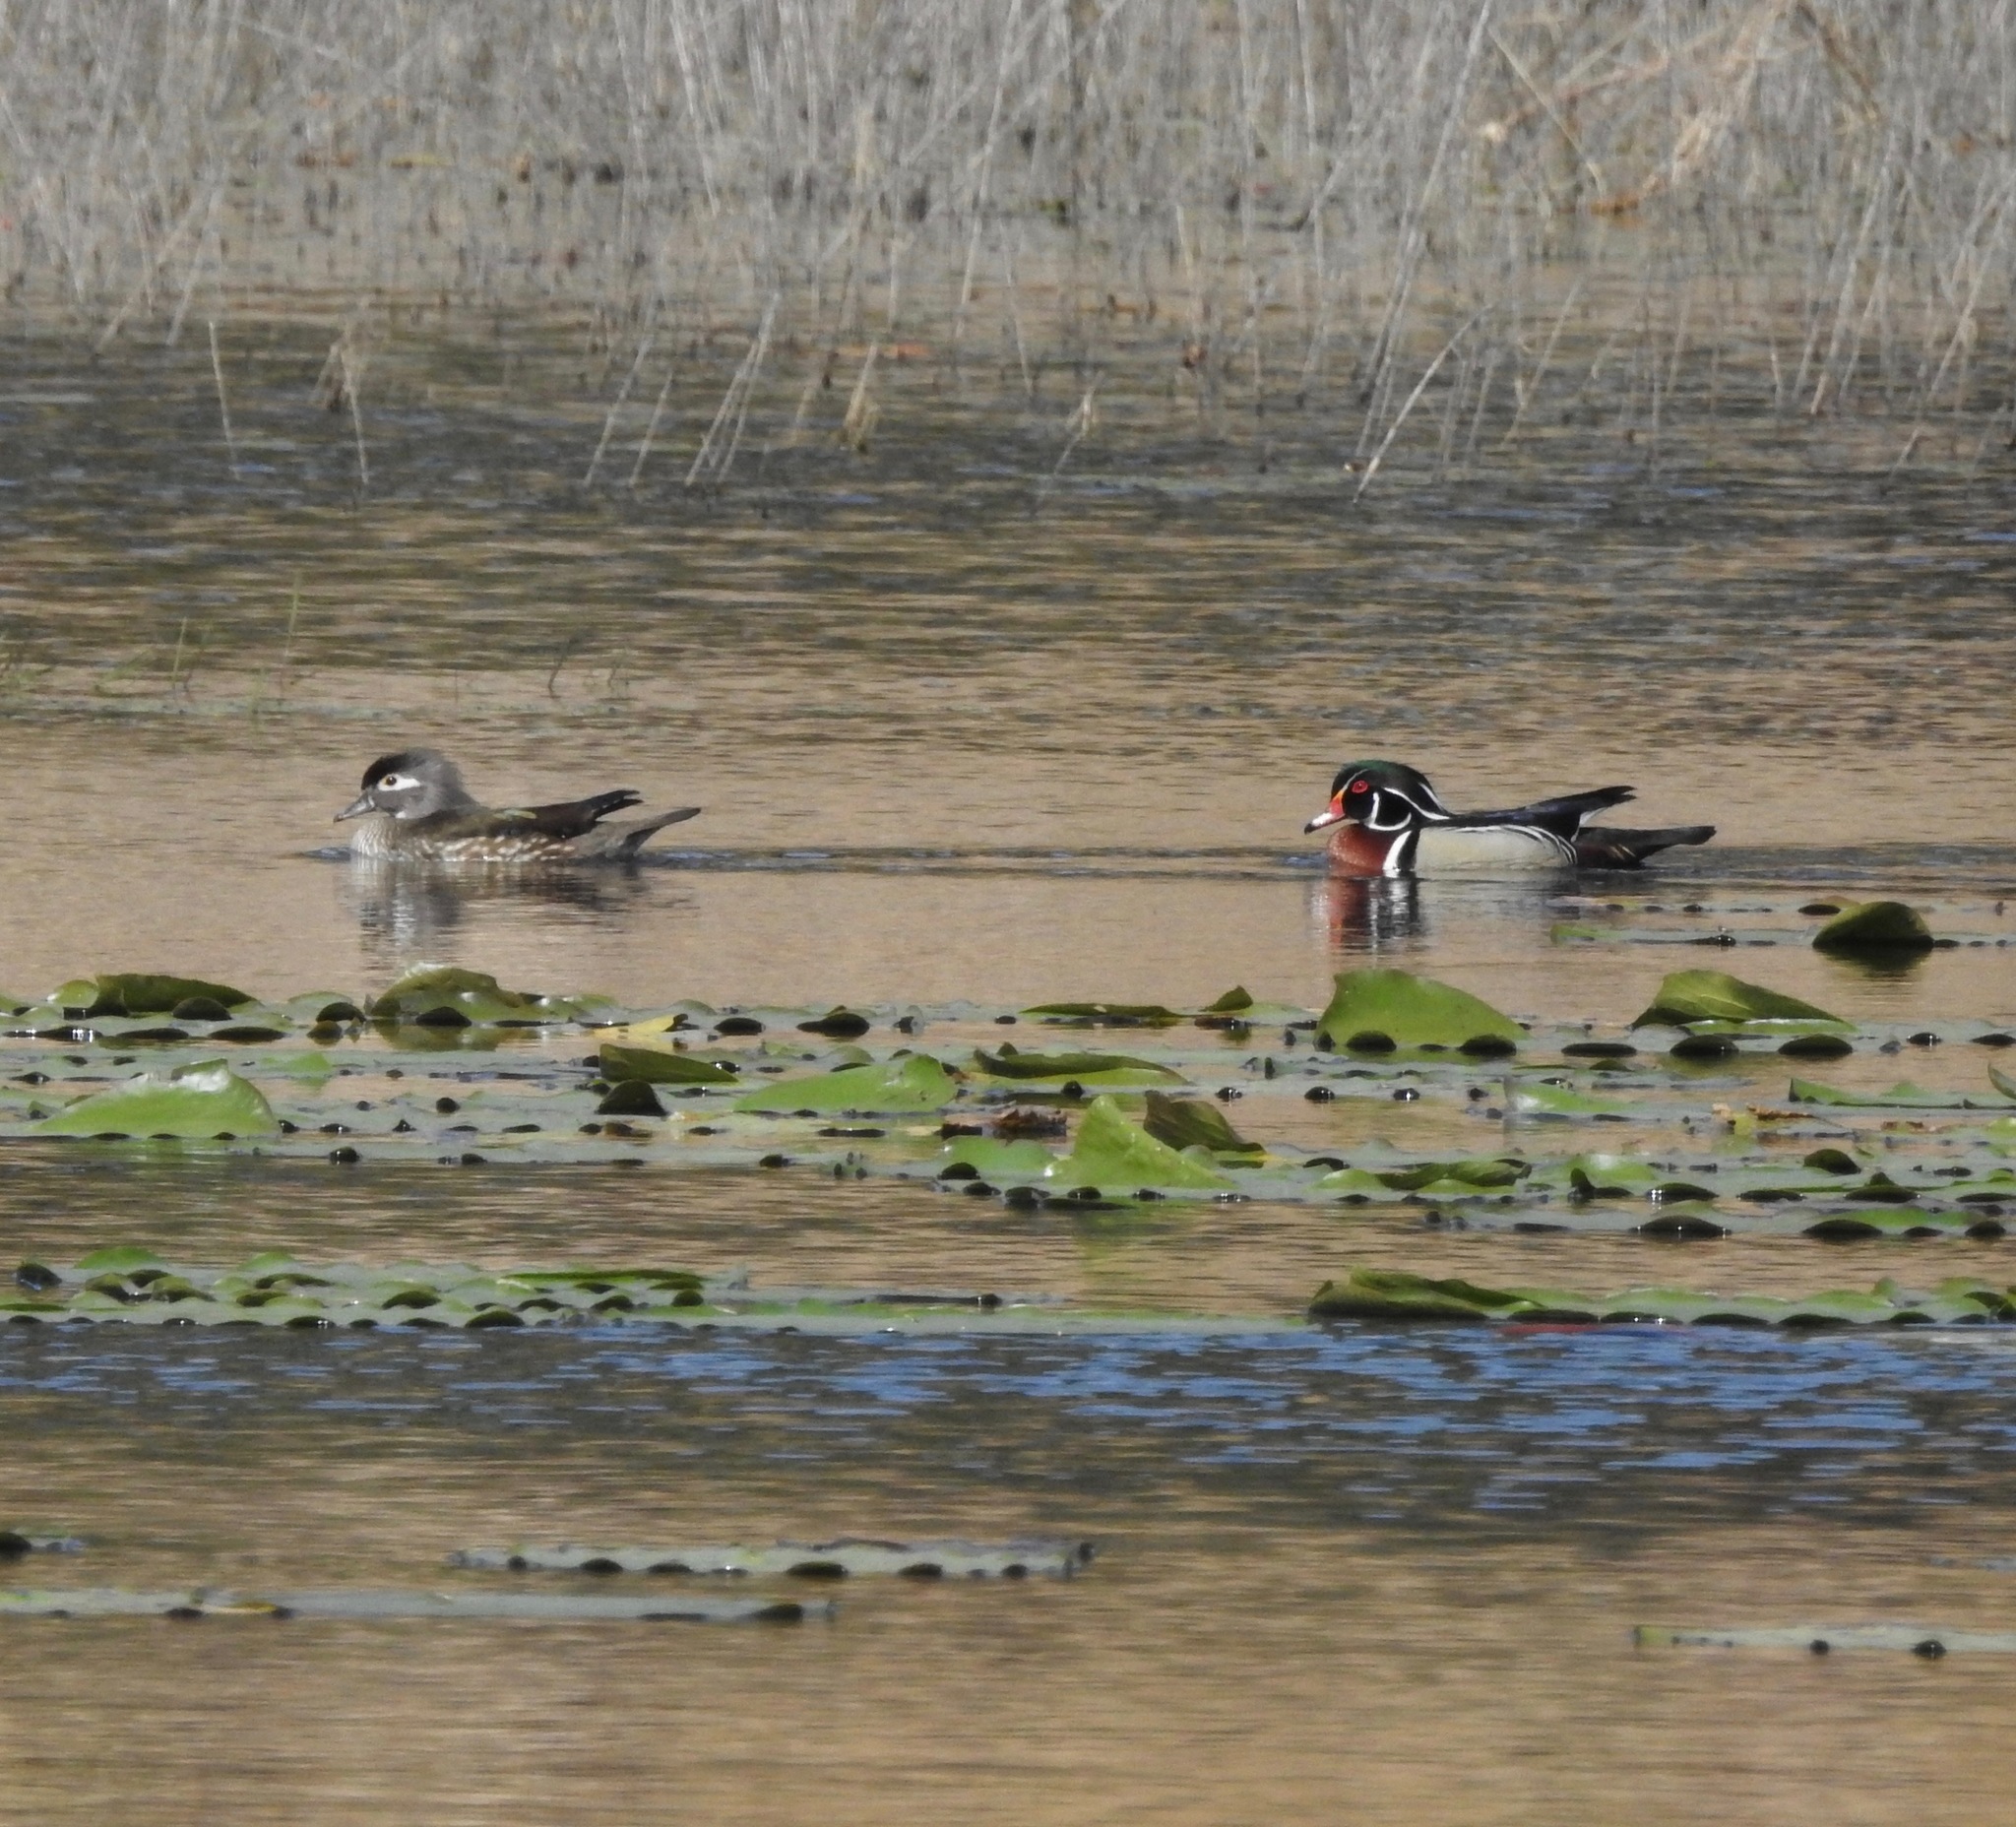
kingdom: Animalia
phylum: Chordata
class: Aves
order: Anseriformes
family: Anatidae
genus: Aix
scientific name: Aix sponsa
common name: Wood duck
